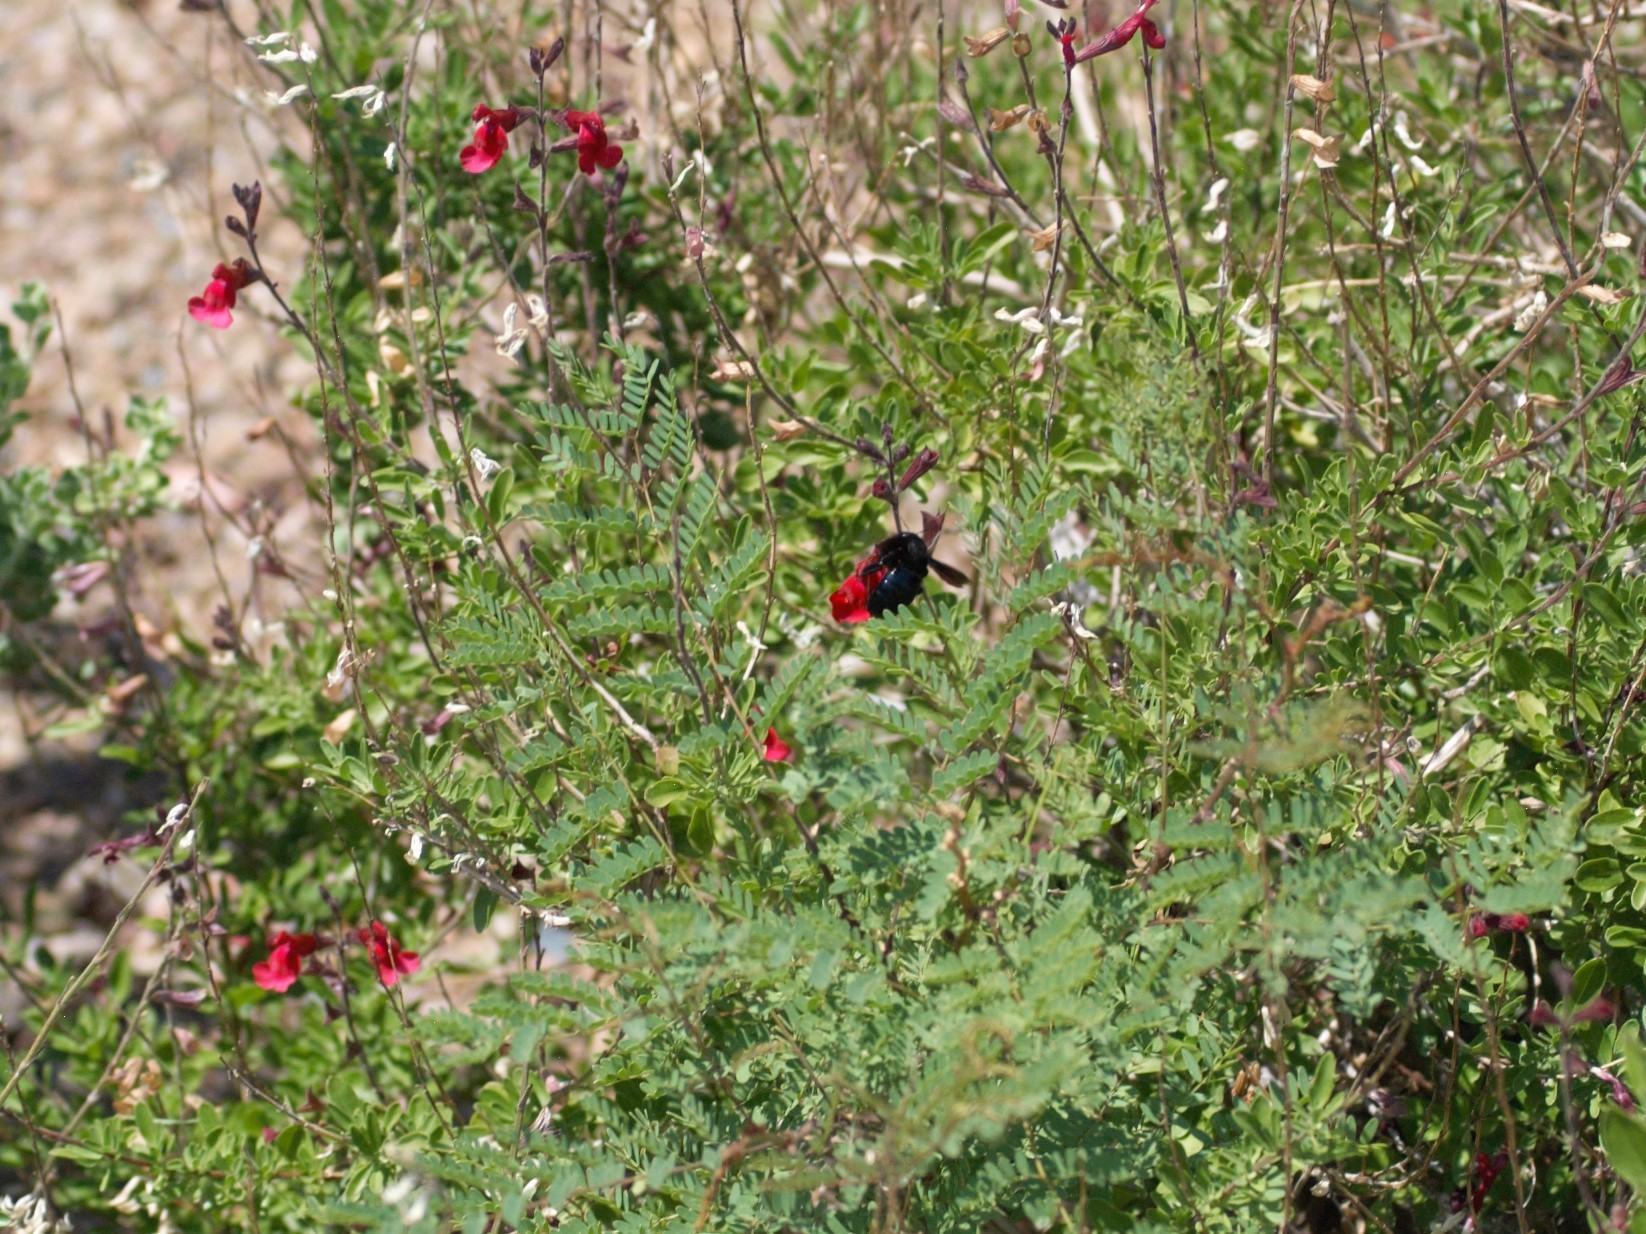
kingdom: Animalia
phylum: Arthropoda
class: Insecta
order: Hymenoptera
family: Apidae
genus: Xylocopa
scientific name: Xylocopa californica
